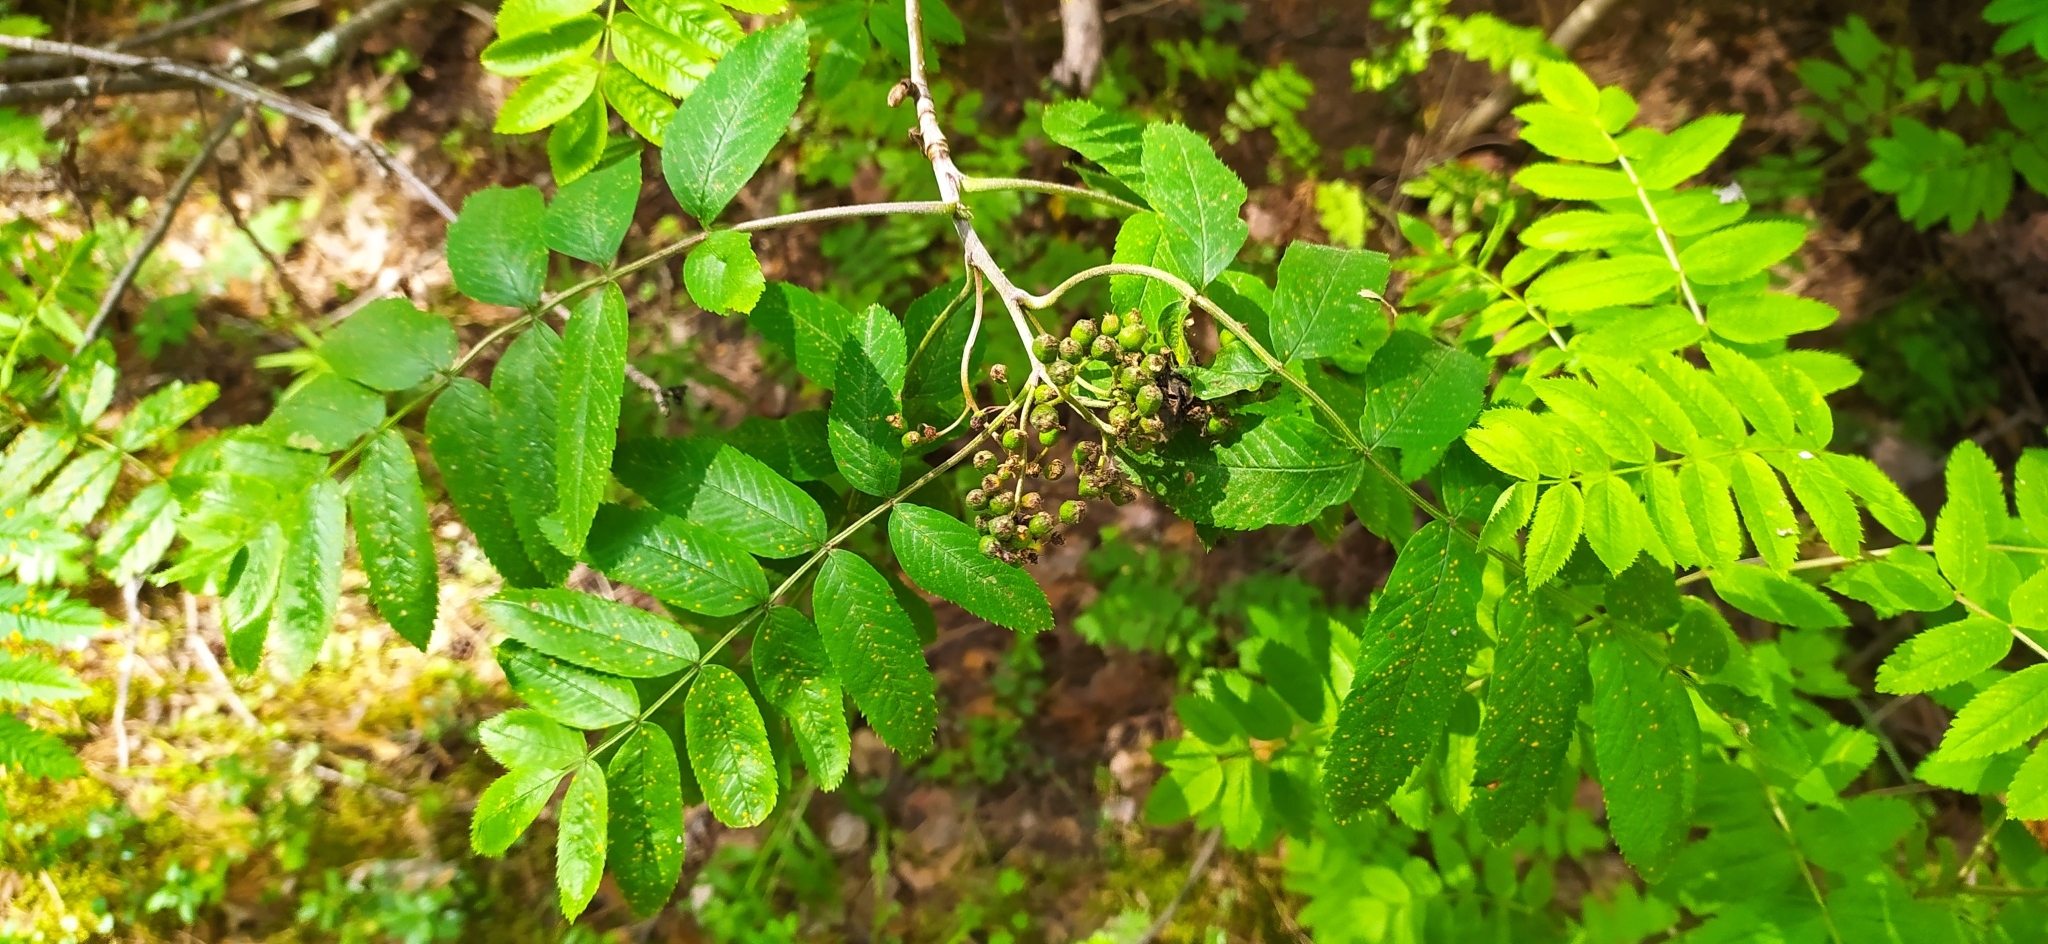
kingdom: Plantae
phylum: Tracheophyta
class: Magnoliopsida
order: Rosales
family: Rosaceae
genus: Sorbus
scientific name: Sorbus aucuparia
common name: Rowan
